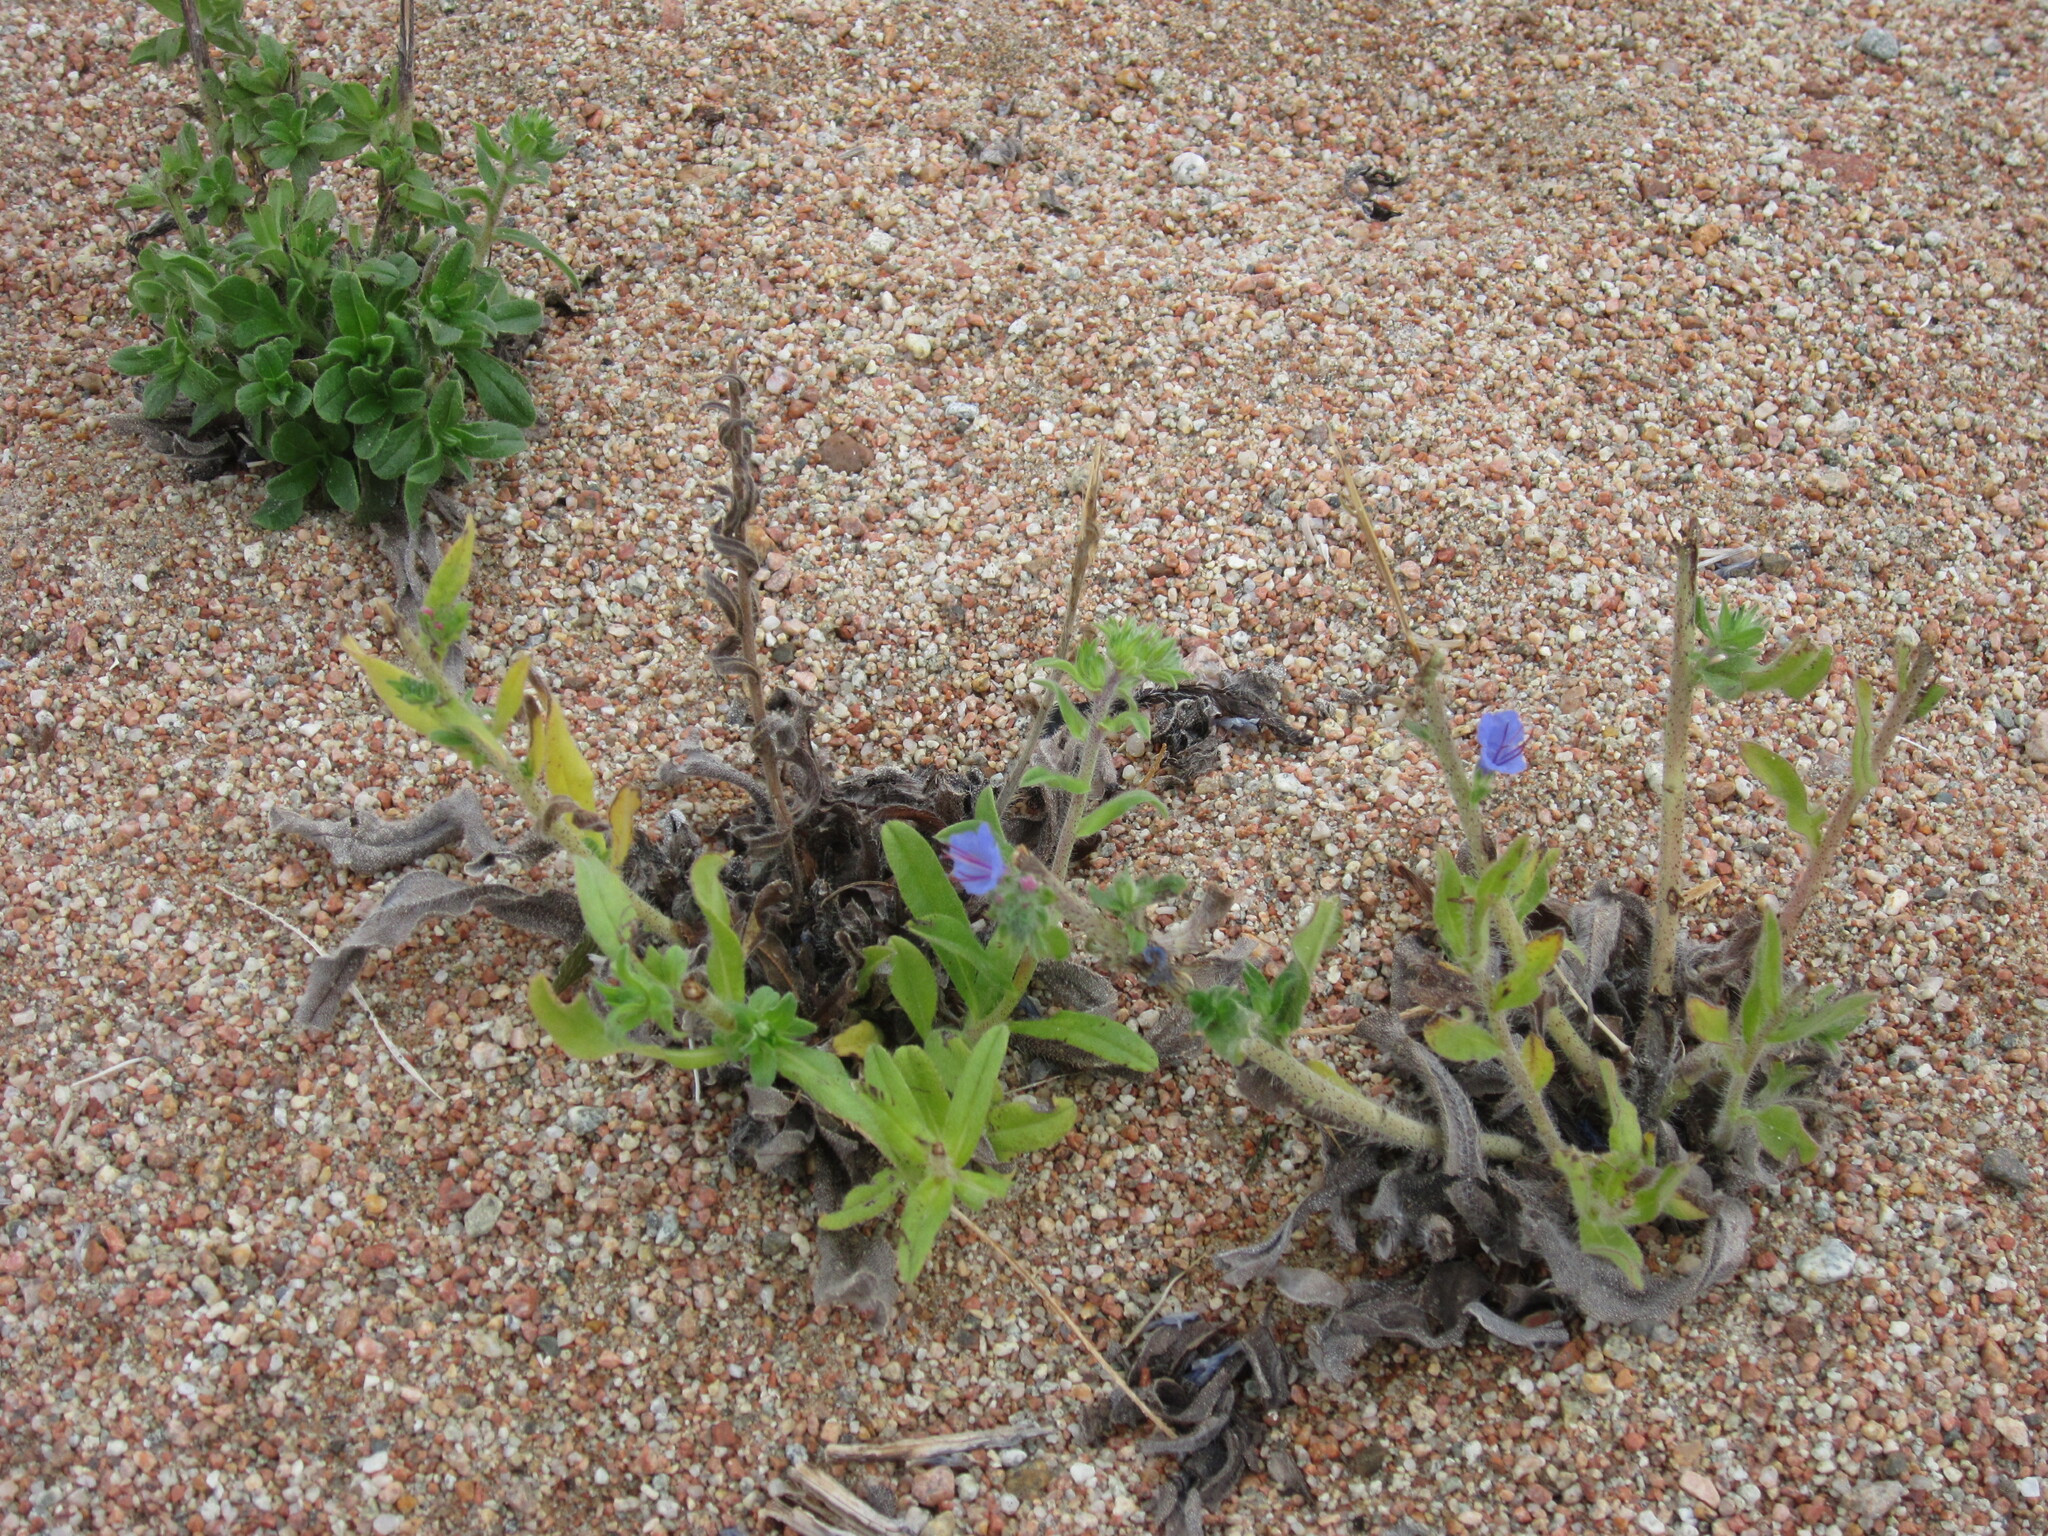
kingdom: Plantae
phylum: Tracheophyta
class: Magnoliopsida
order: Boraginales
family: Boraginaceae
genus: Echium
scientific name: Echium vulgare
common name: Common viper's bugloss
